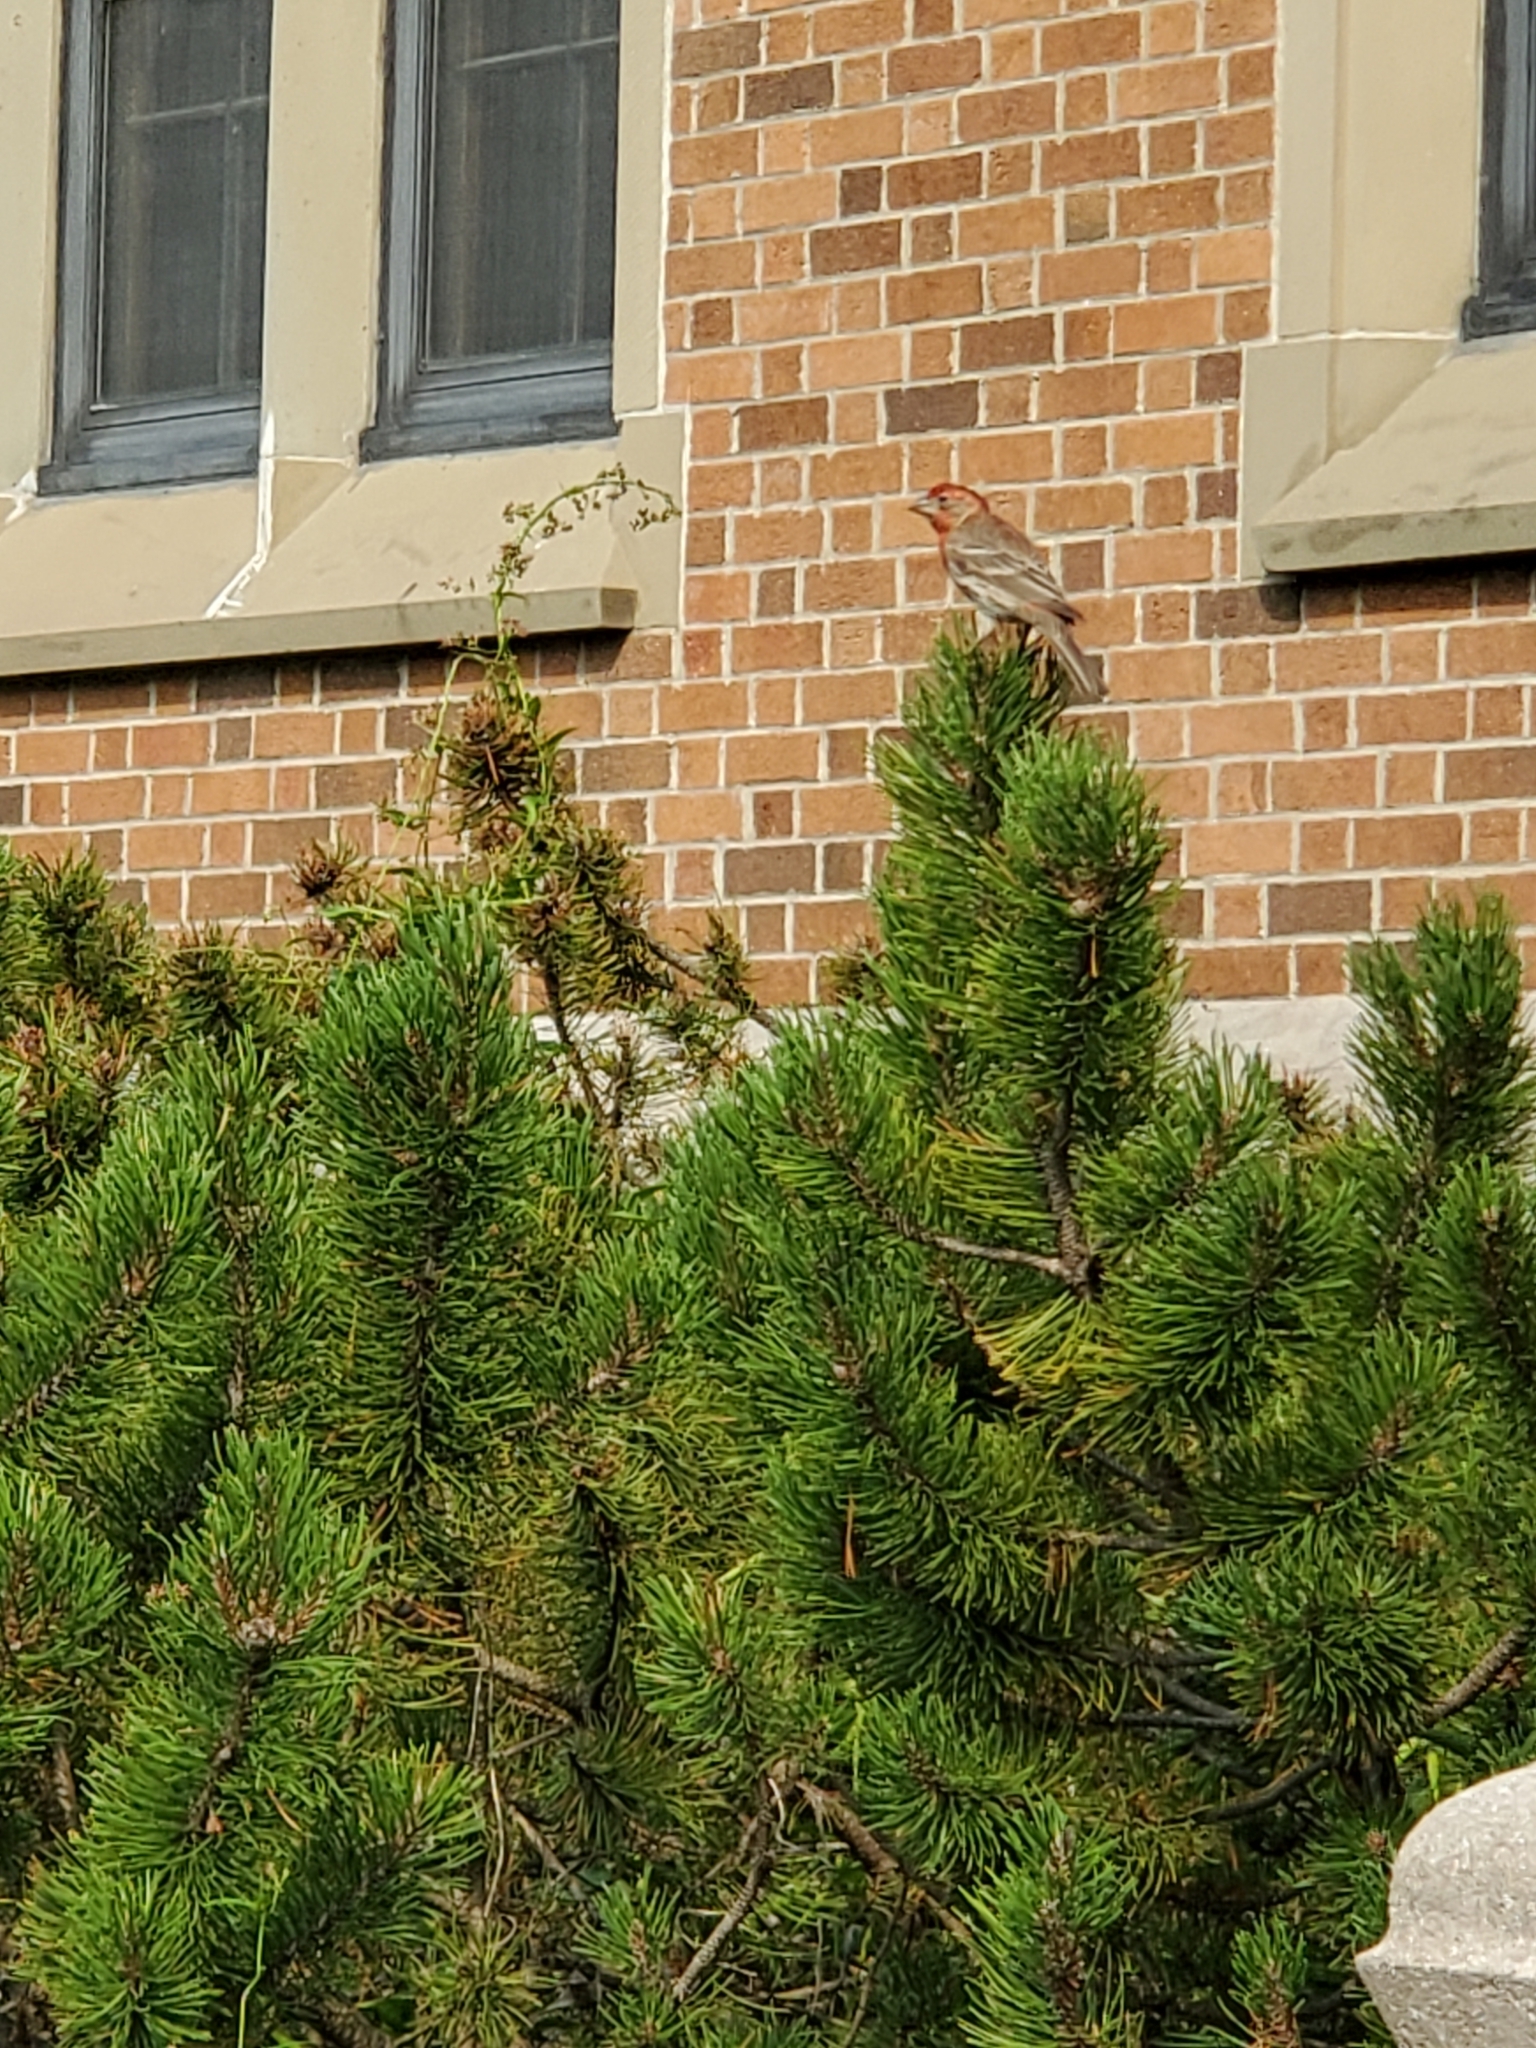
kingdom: Animalia
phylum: Chordata
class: Aves
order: Passeriformes
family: Fringillidae
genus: Haemorhous
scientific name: Haemorhous mexicanus
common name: House finch
